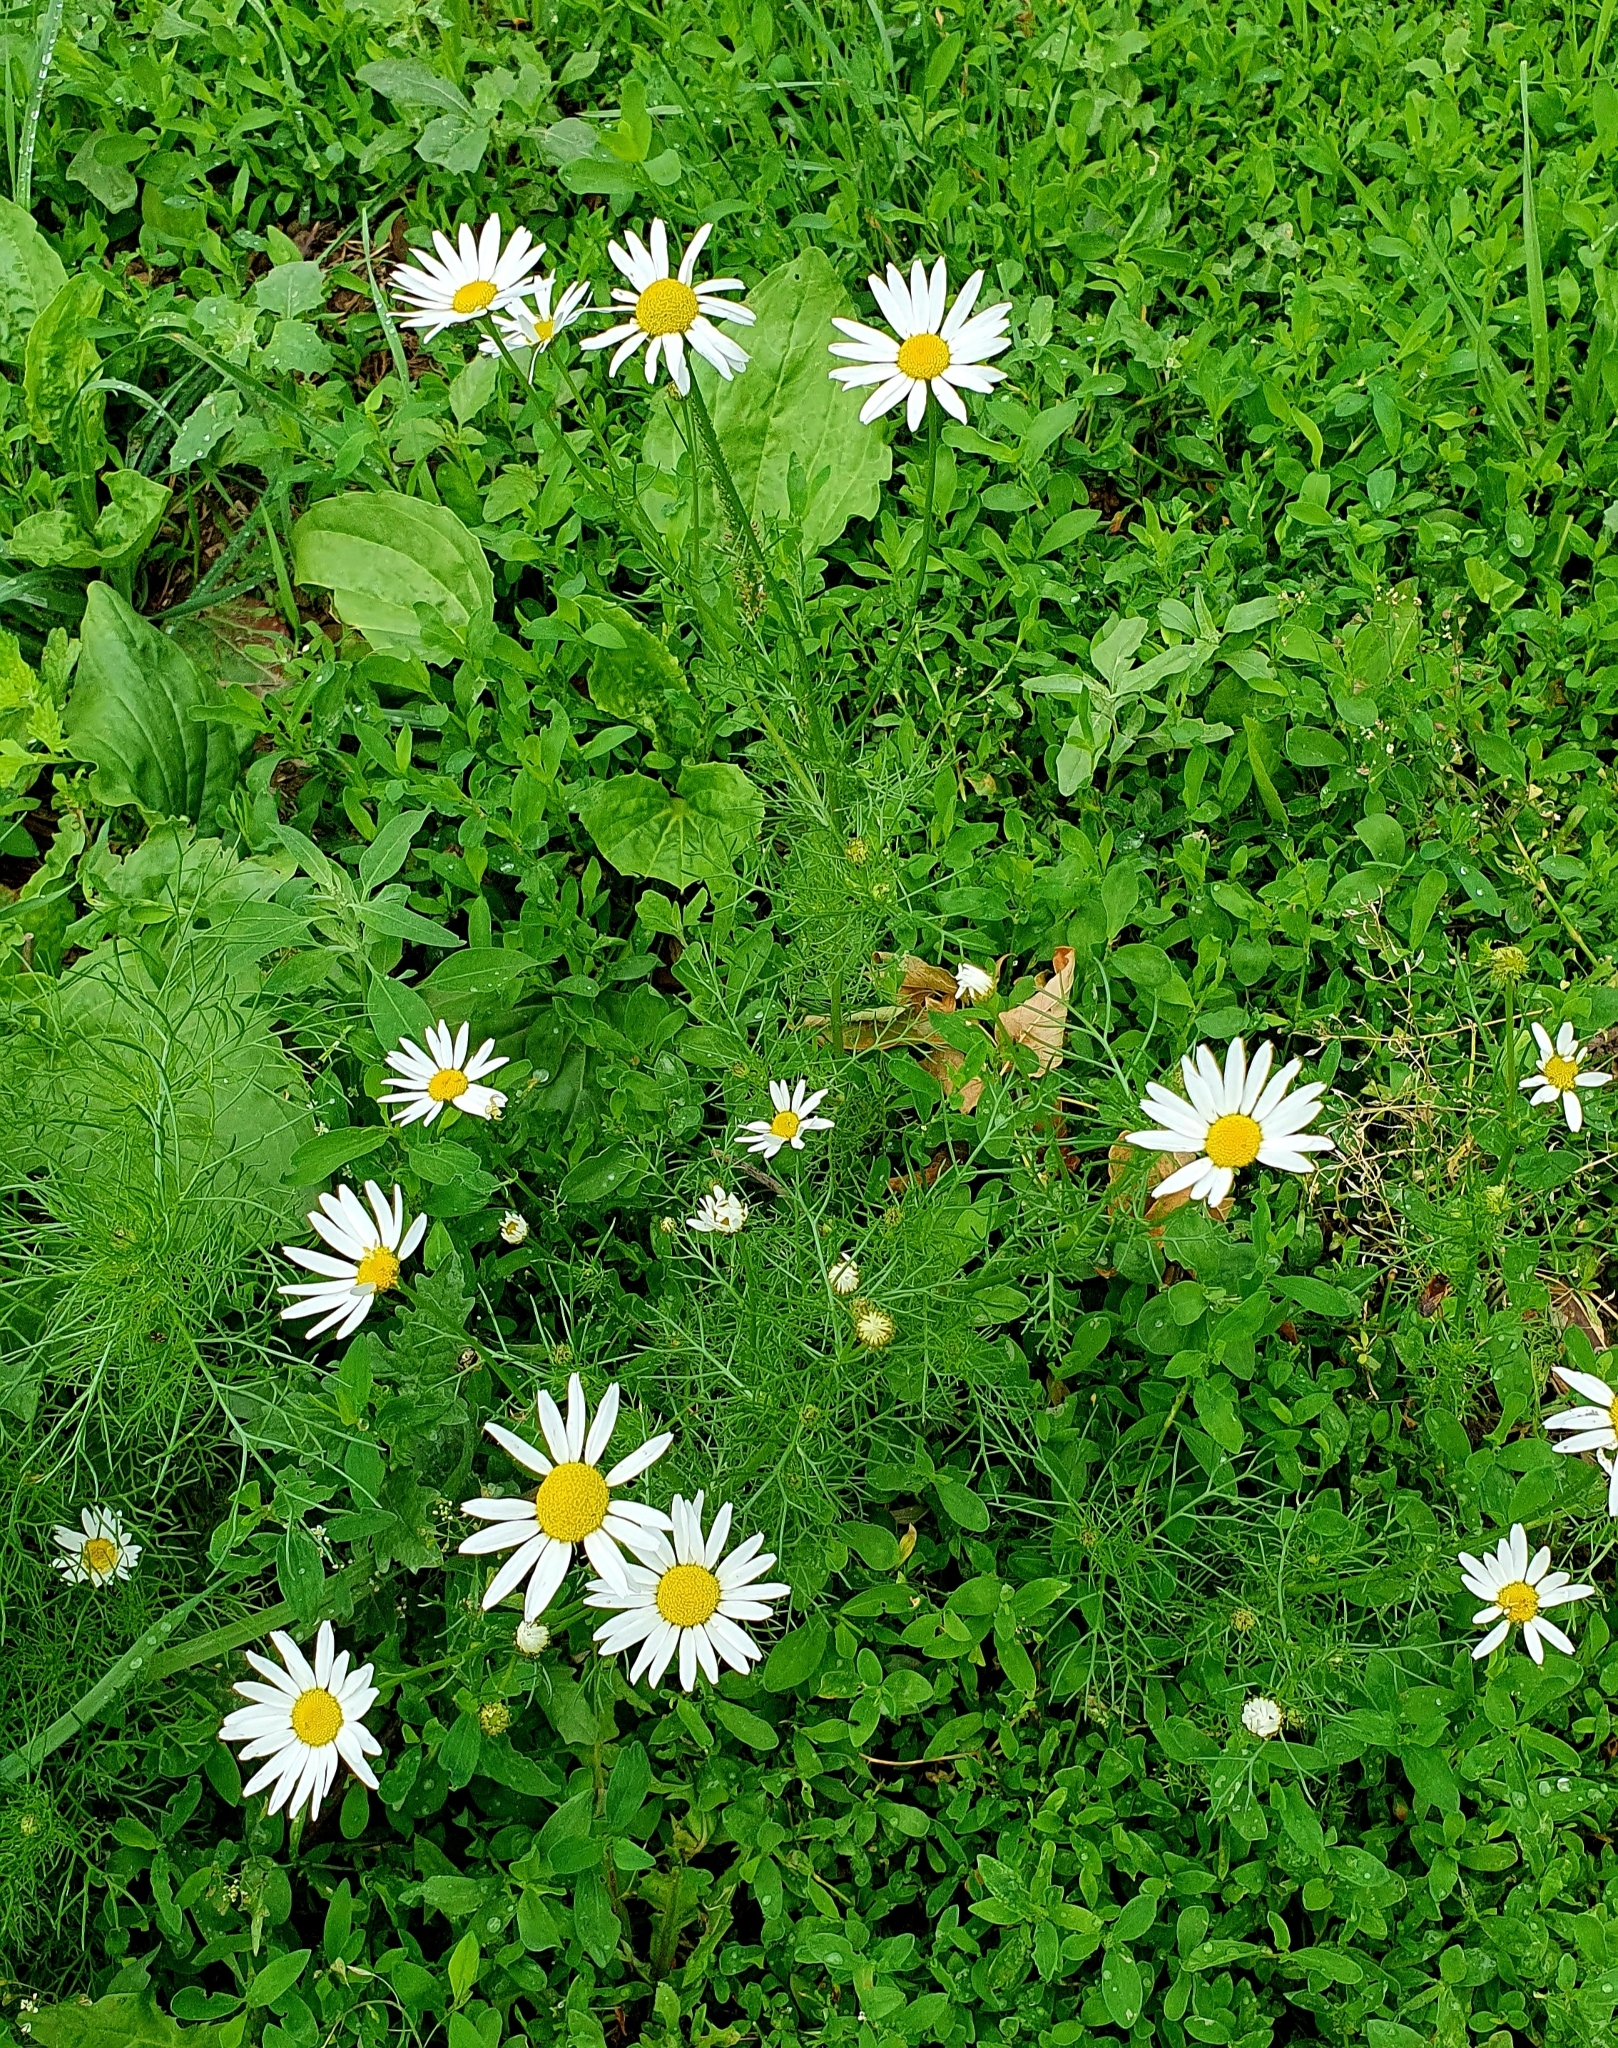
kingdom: Plantae
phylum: Tracheophyta
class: Magnoliopsida
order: Asterales
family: Asteraceae
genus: Tripleurospermum
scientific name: Tripleurospermum inodorum
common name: Scentless mayweed
